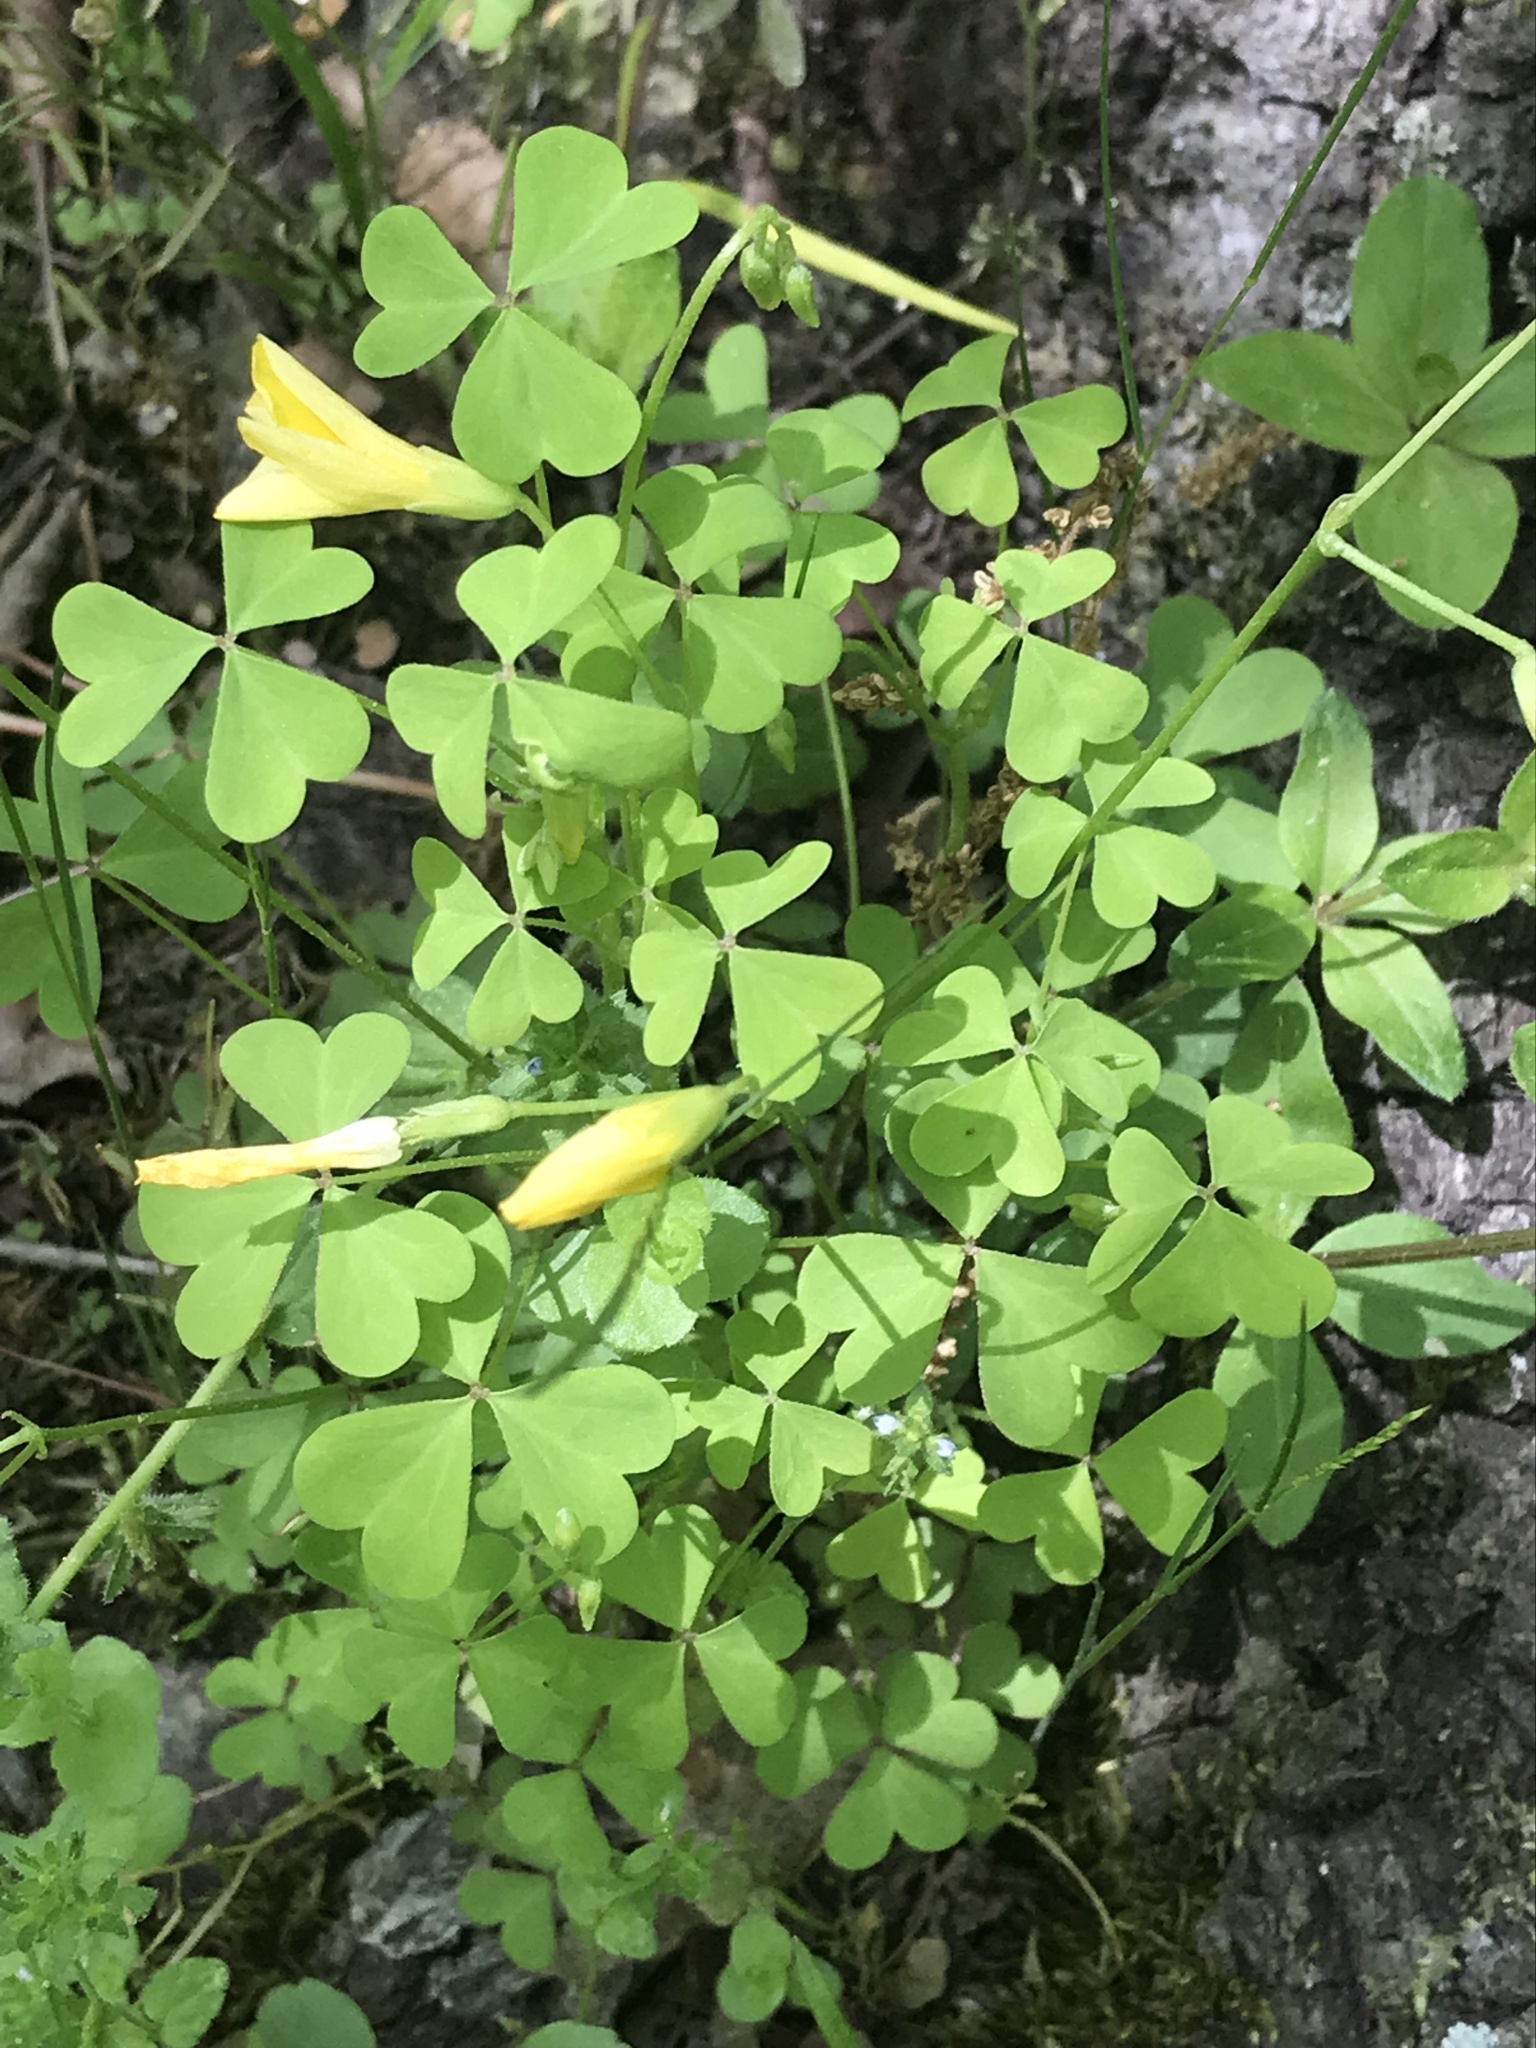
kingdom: Plantae
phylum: Tracheophyta
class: Magnoliopsida
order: Oxalidales
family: Oxalidaceae
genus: Oxalis
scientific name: Oxalis dillenii
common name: Sussex yellow-sorrel
